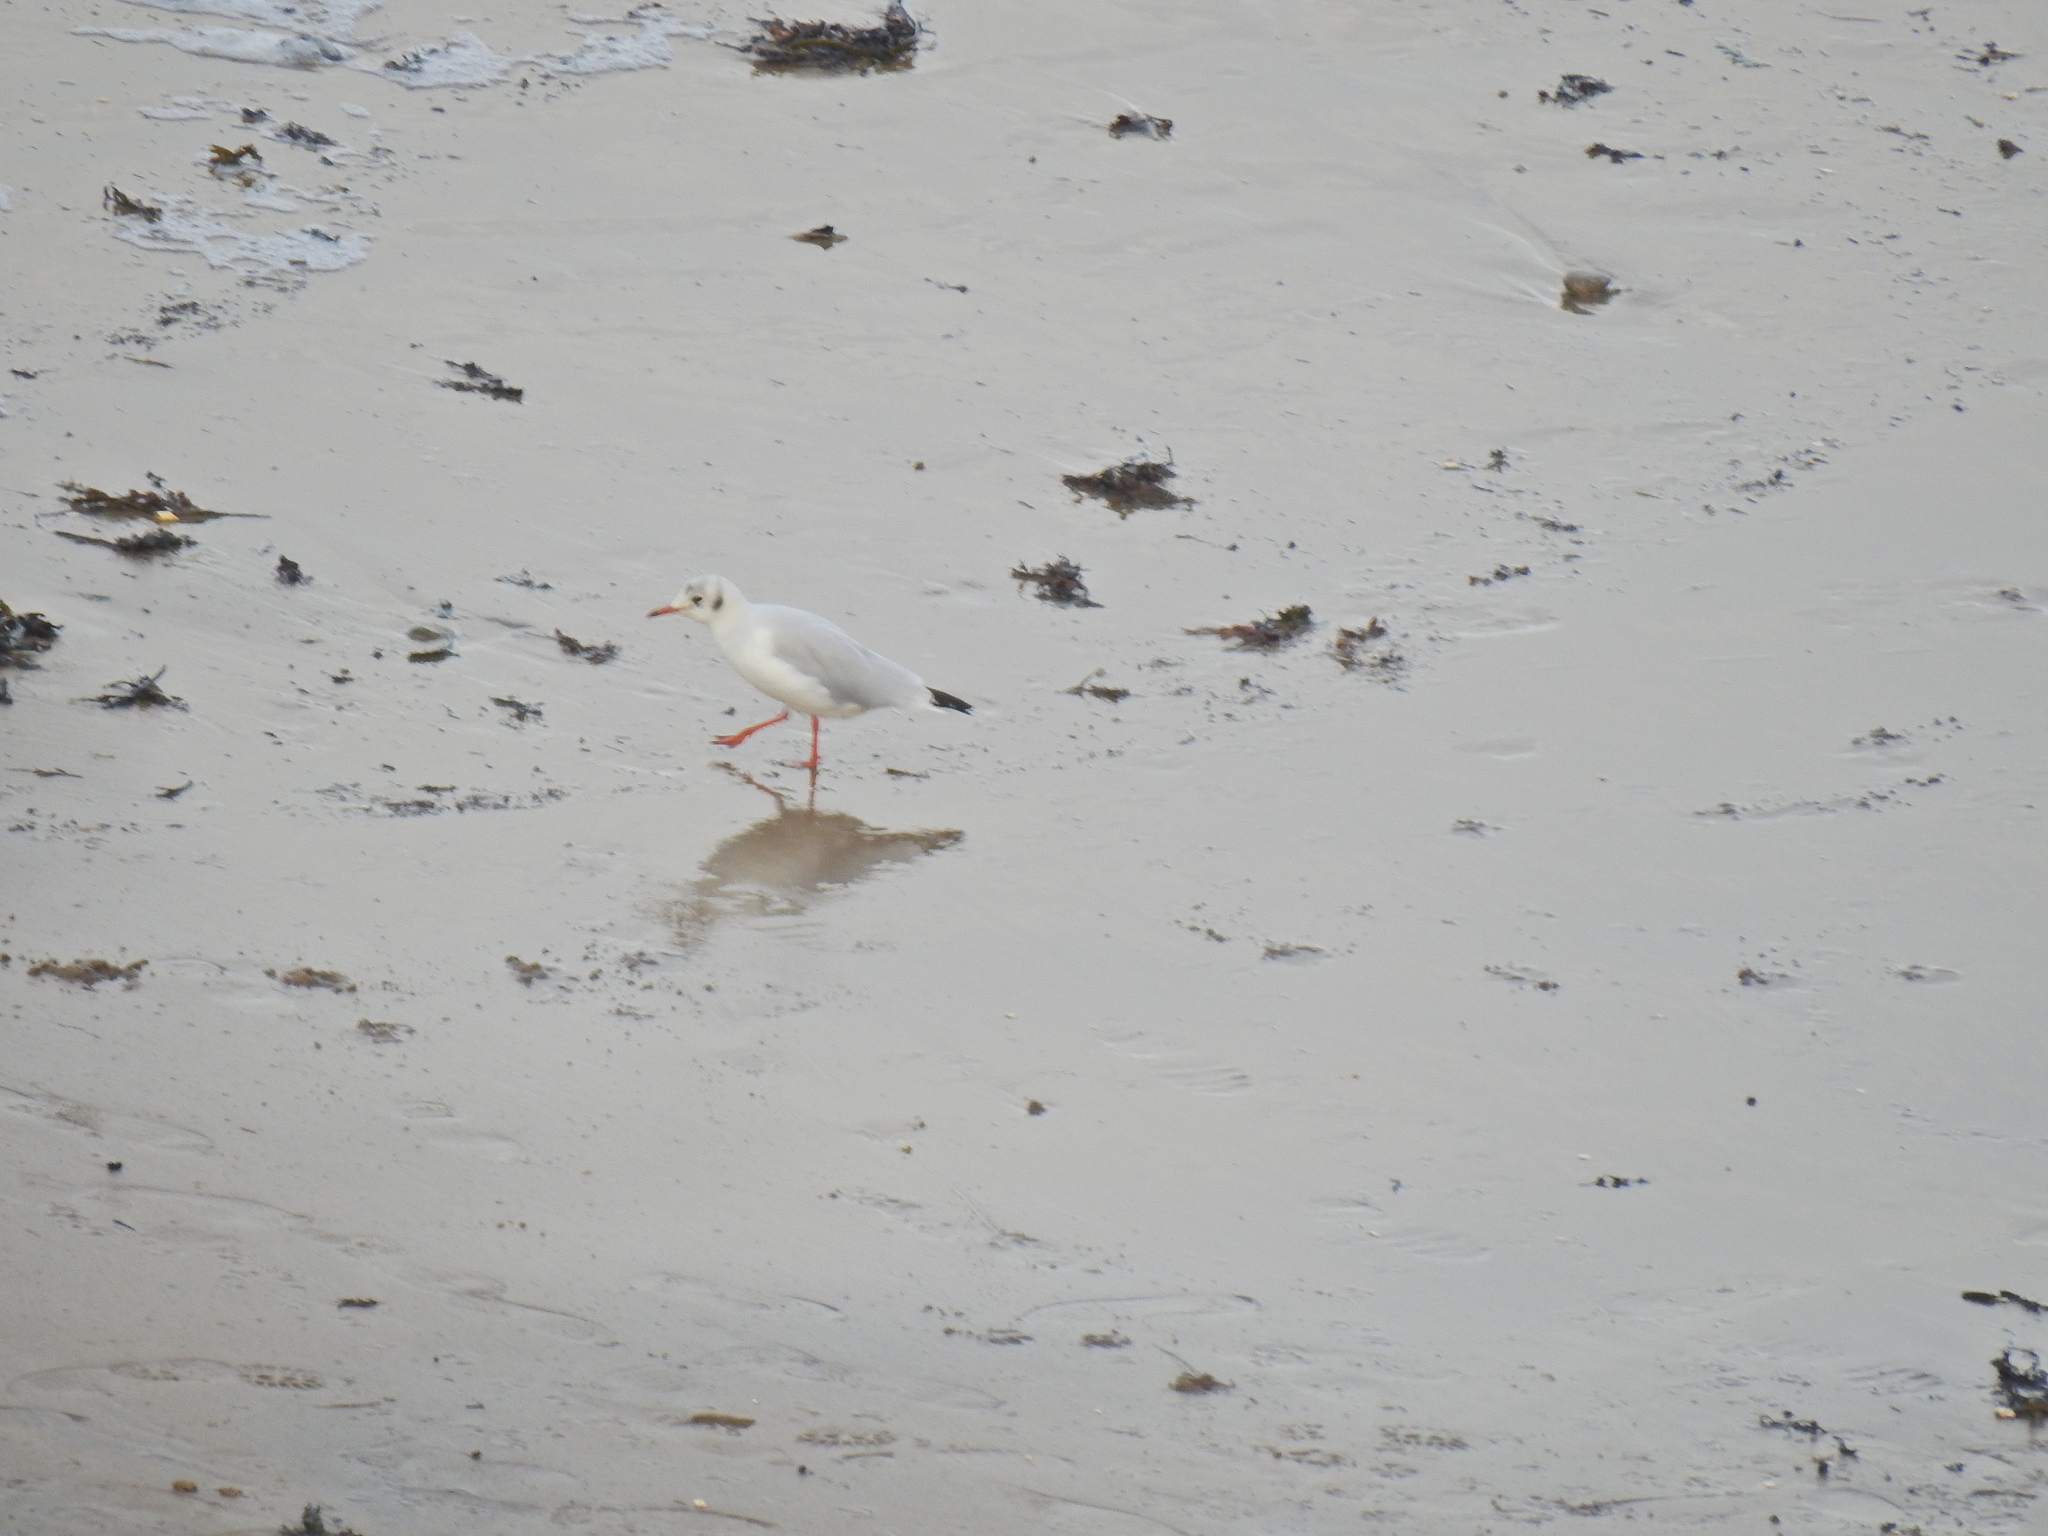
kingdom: Animalia
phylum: Chordata
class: Aves
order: Charadriiformes
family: Laridae
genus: Chroicocephalus
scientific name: Chroicocephalus ridibundus
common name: Black-headed gull
